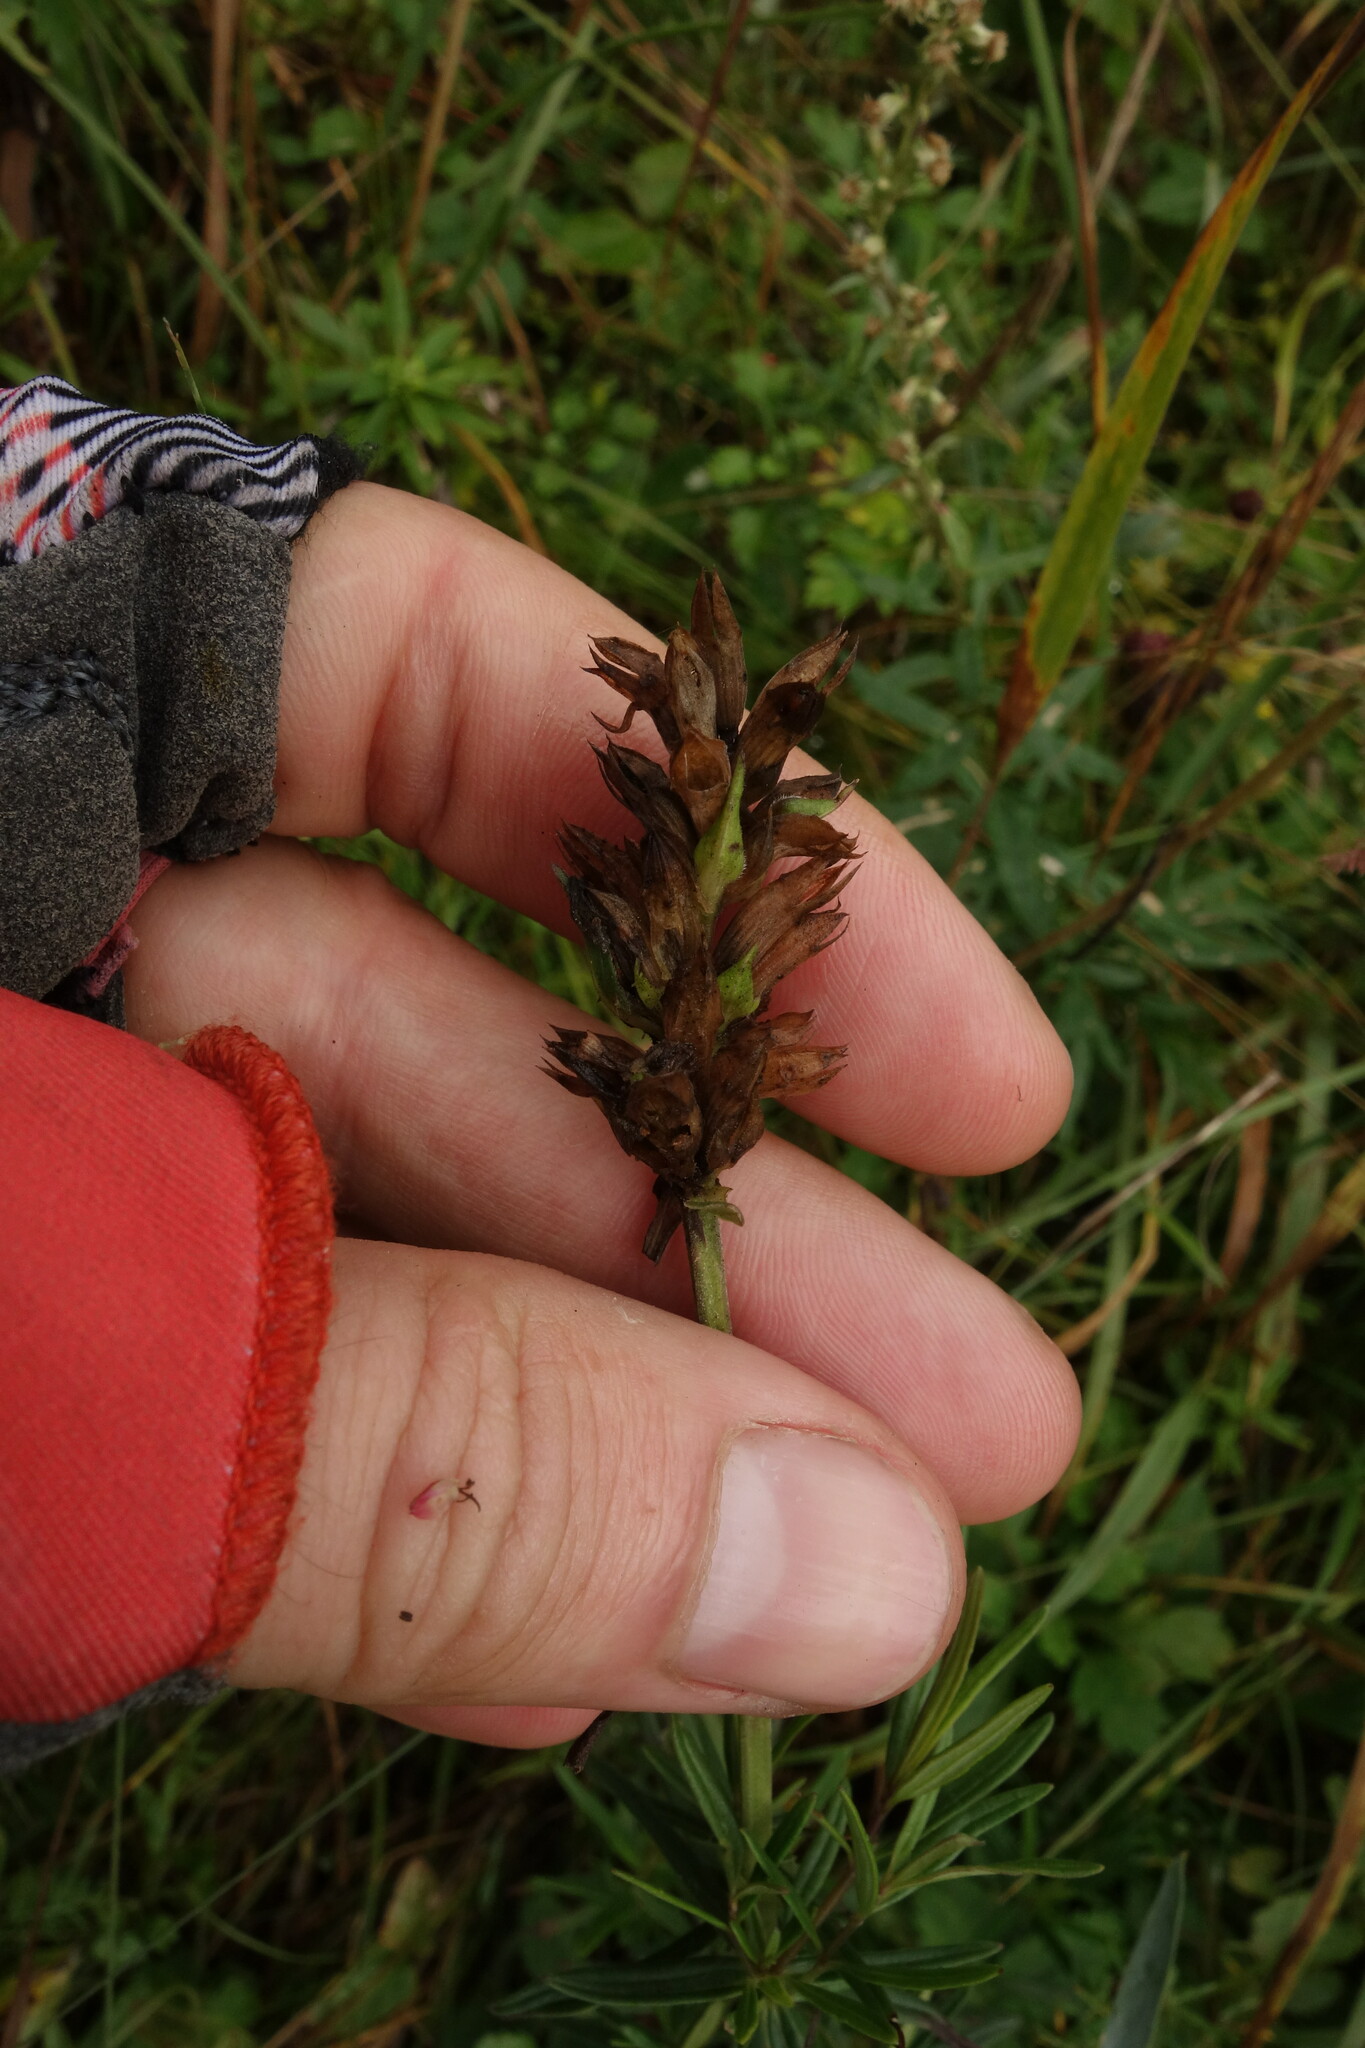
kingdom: Plantae
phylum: Tracheophyta
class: Magnoliopsida
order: Lamiales
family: Lamiaceae
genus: Dracocephalum
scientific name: Dracocephalum ruyschiana
